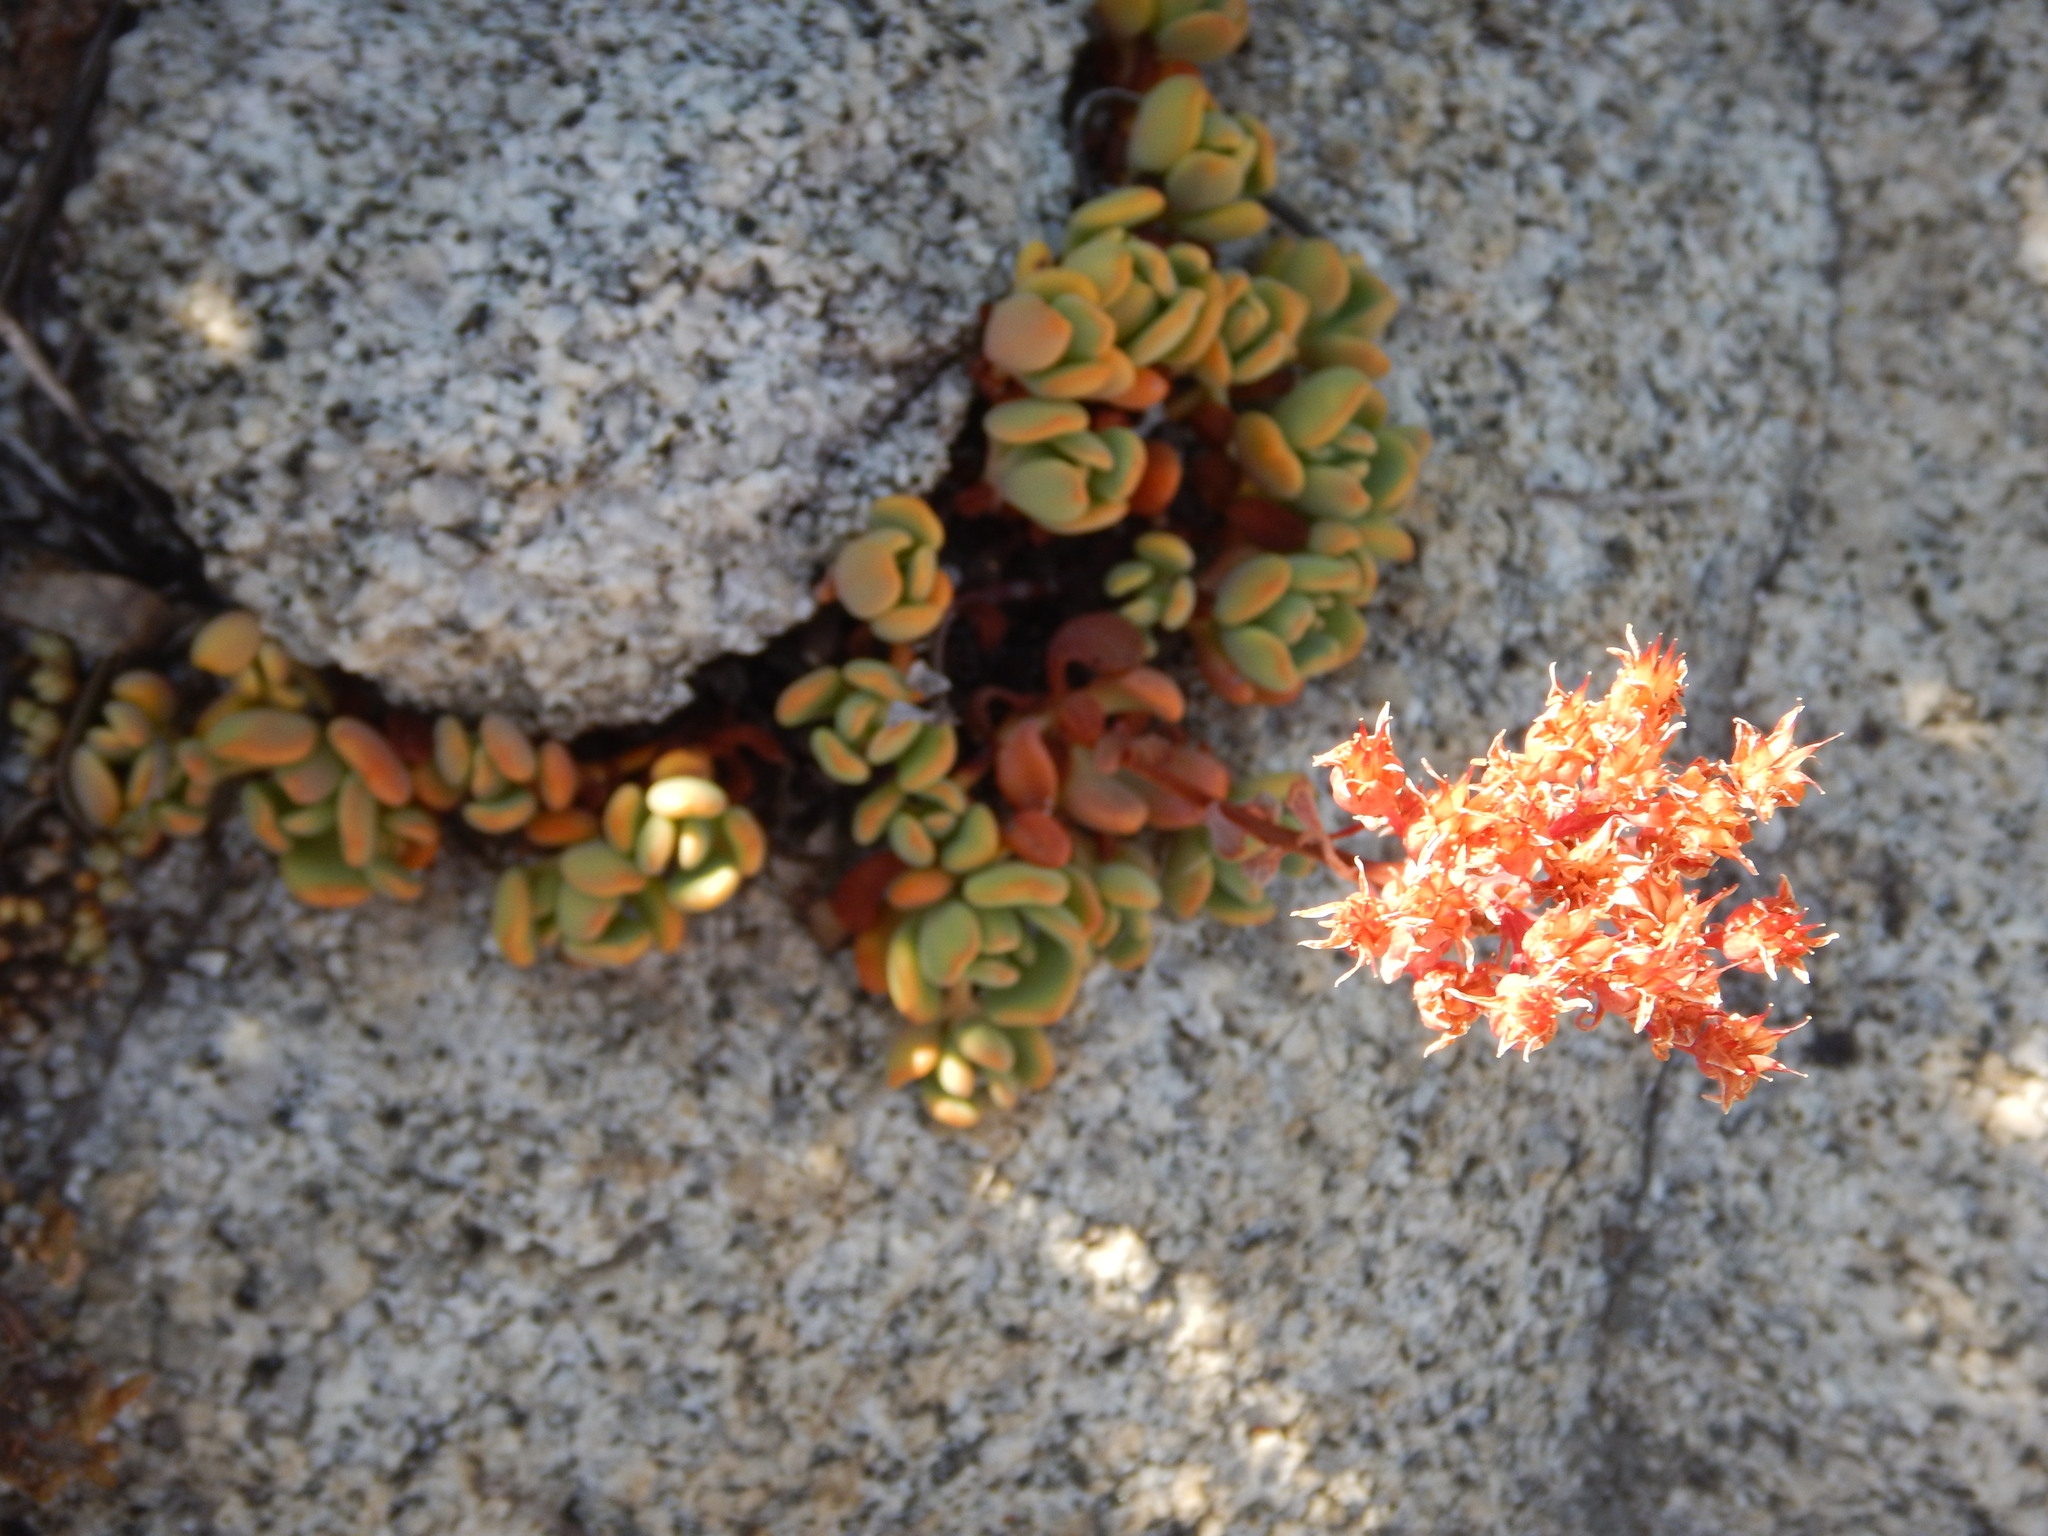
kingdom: Plantae
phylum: Tracheophyta
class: Magnoliopsida
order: Saxifragales
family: Crassulaceae
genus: Sedum
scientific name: Sedum obtusatum
